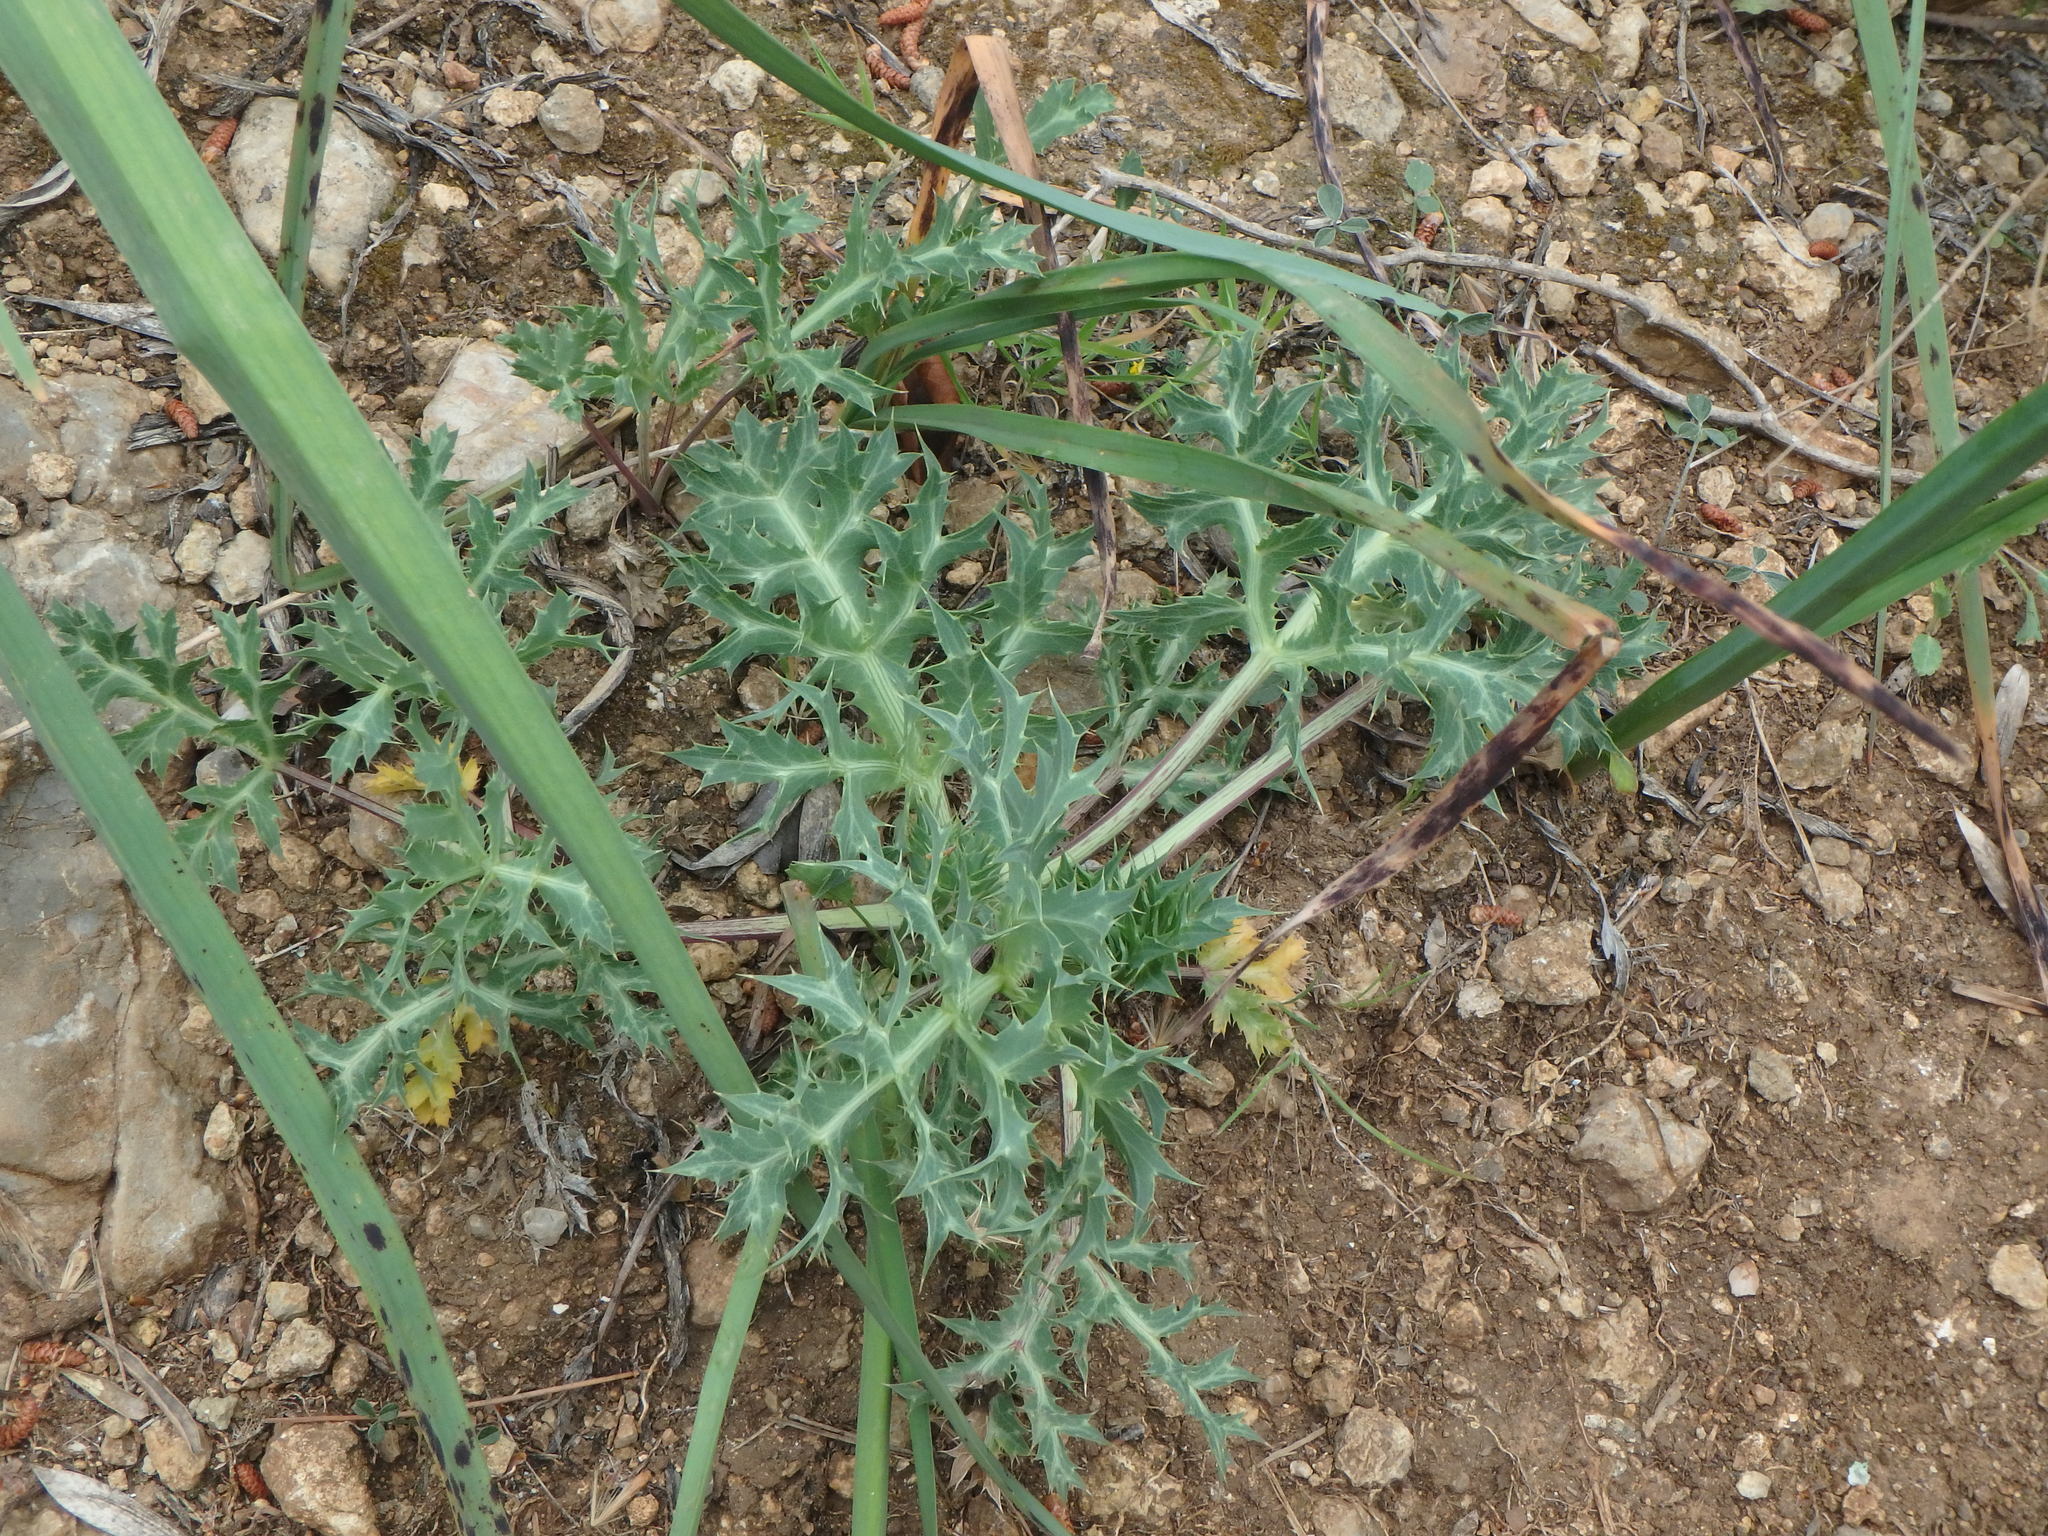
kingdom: Plantae
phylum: Tracheophyta
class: Magnoliopsida
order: Apiales
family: Apiaceae
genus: Eryngium
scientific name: Eryngium campestre
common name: Field eryngo
